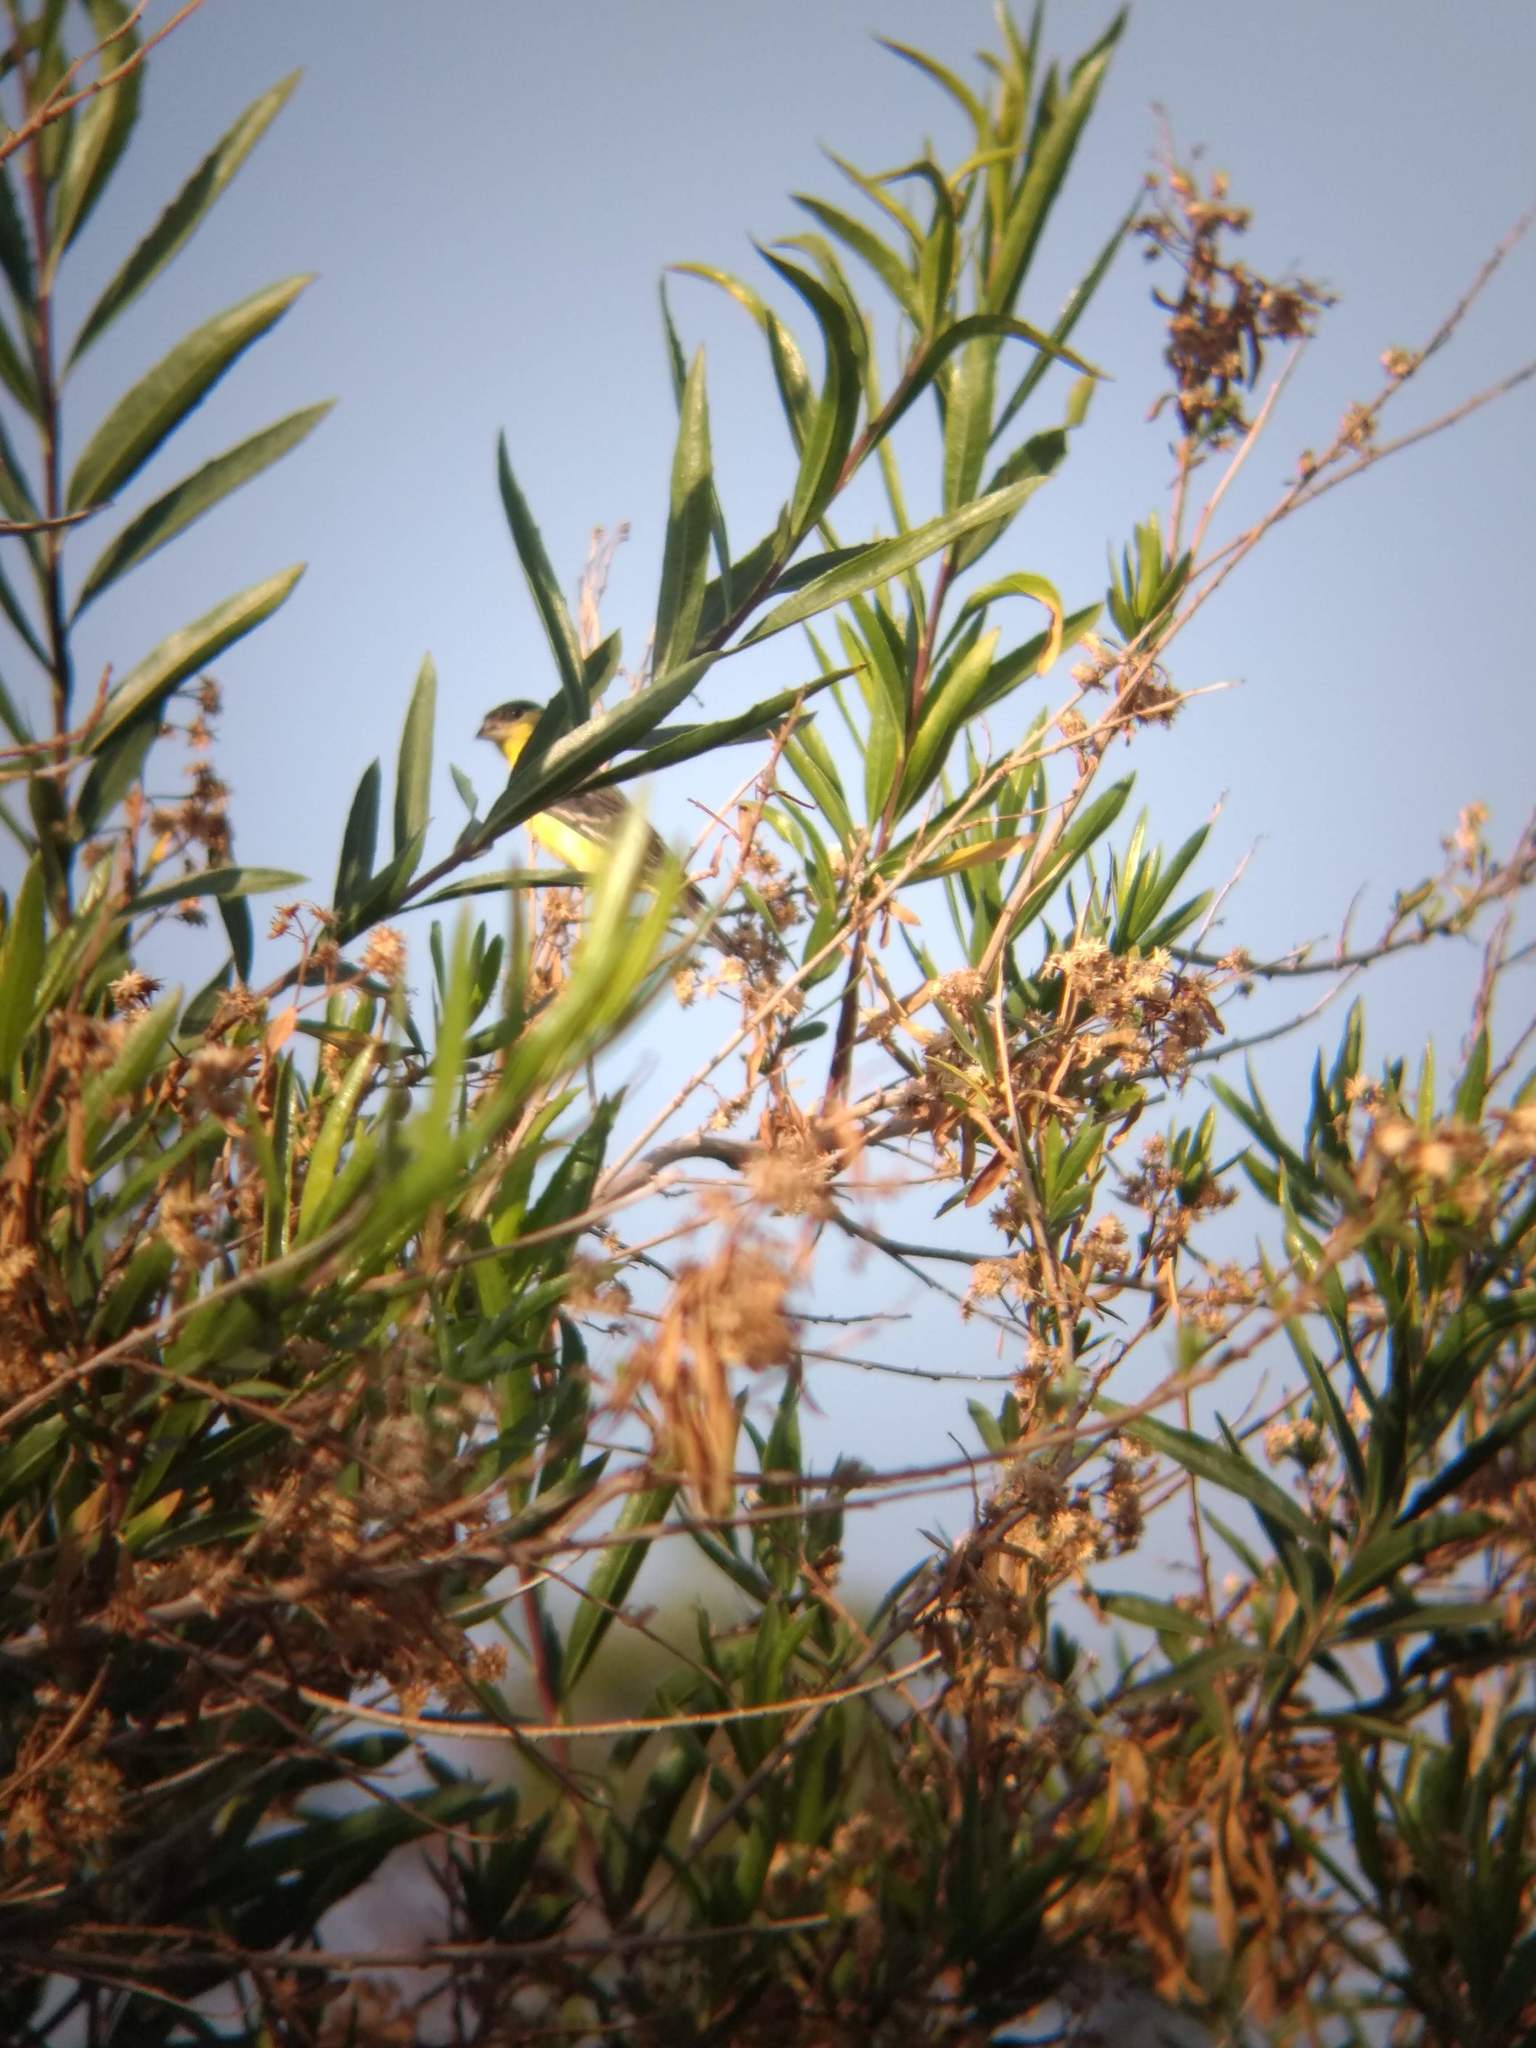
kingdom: Animalia
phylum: Chordata
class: Aves
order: Passeriformes
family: Fringillidae
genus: Spinus
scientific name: Spinus psaltria
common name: Lesser goldfinch
